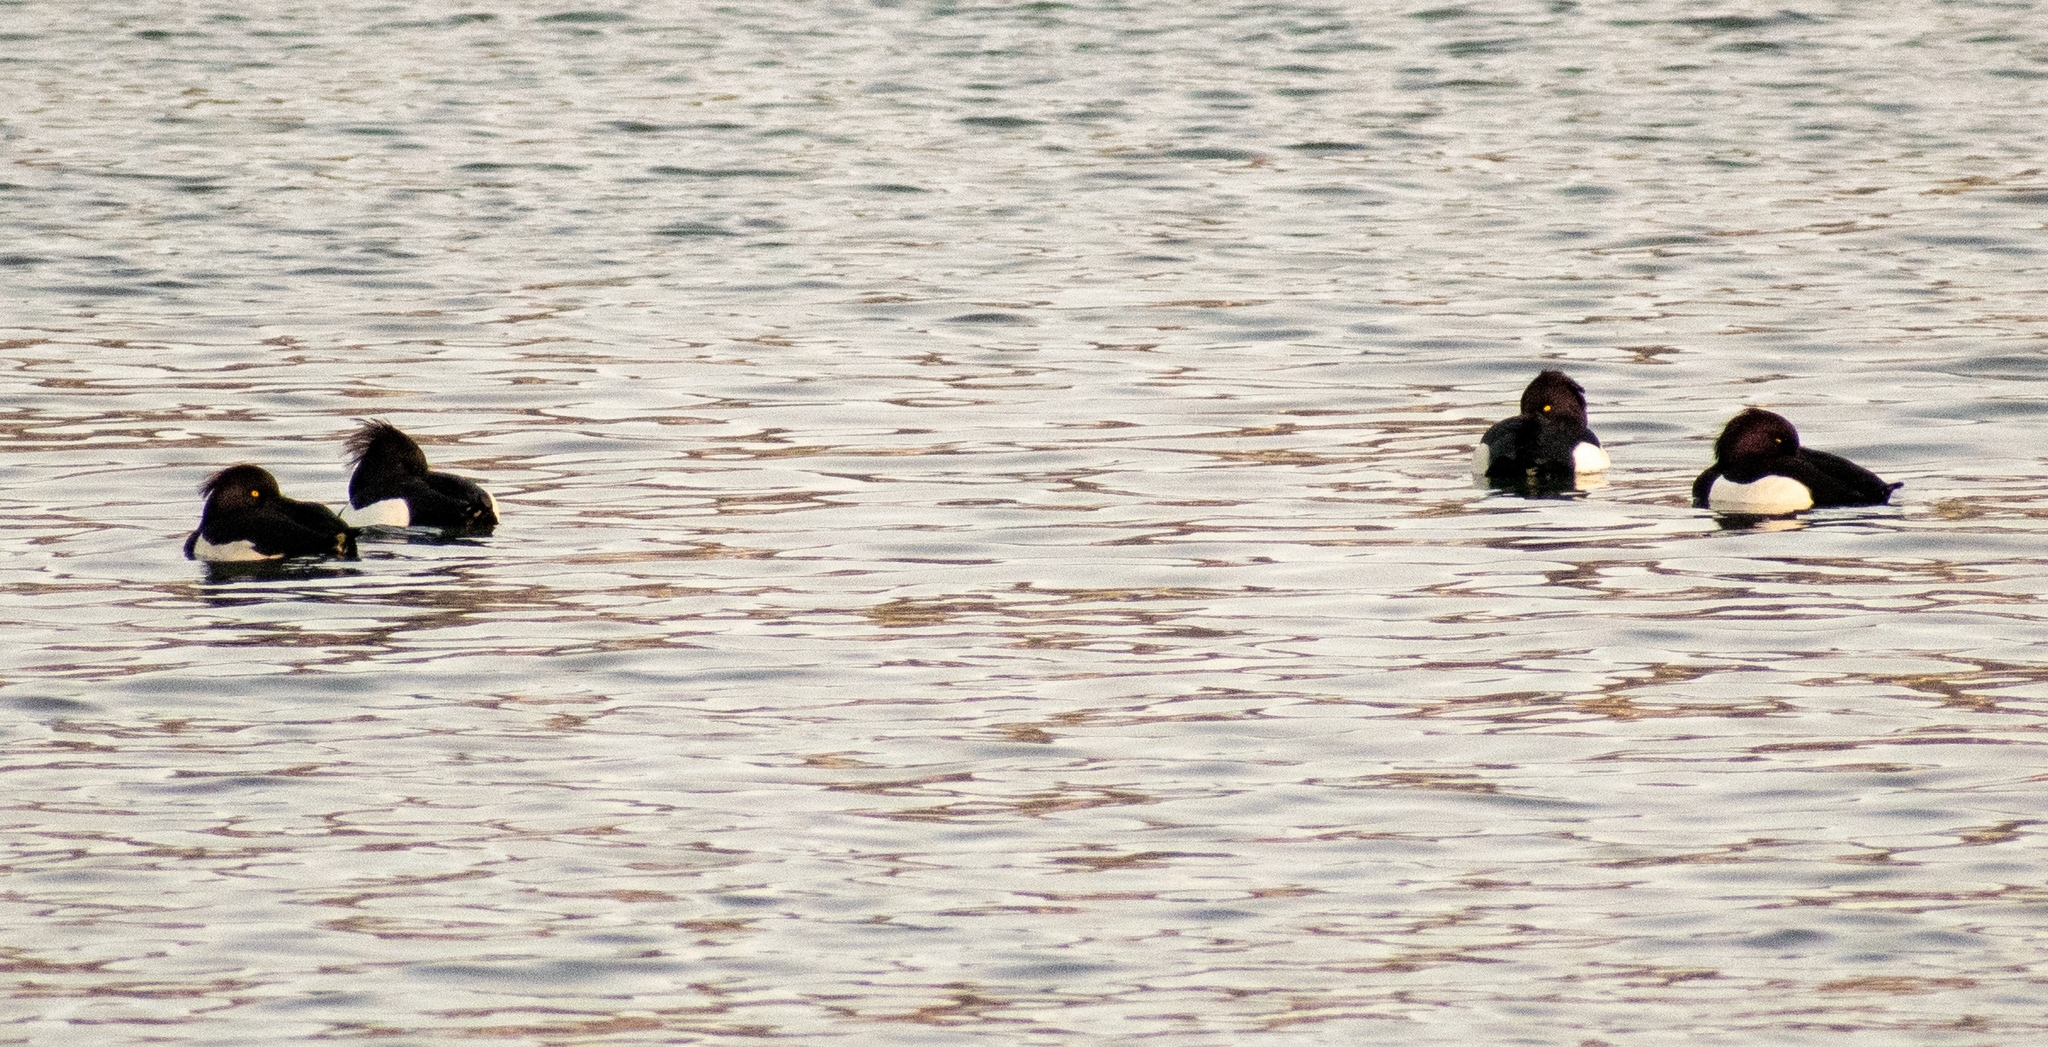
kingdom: Animalia
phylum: Chordata
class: Aves
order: Anseriformes
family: Anatidae
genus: Aythya
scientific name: Aythya fuligula
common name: Tufted duck
